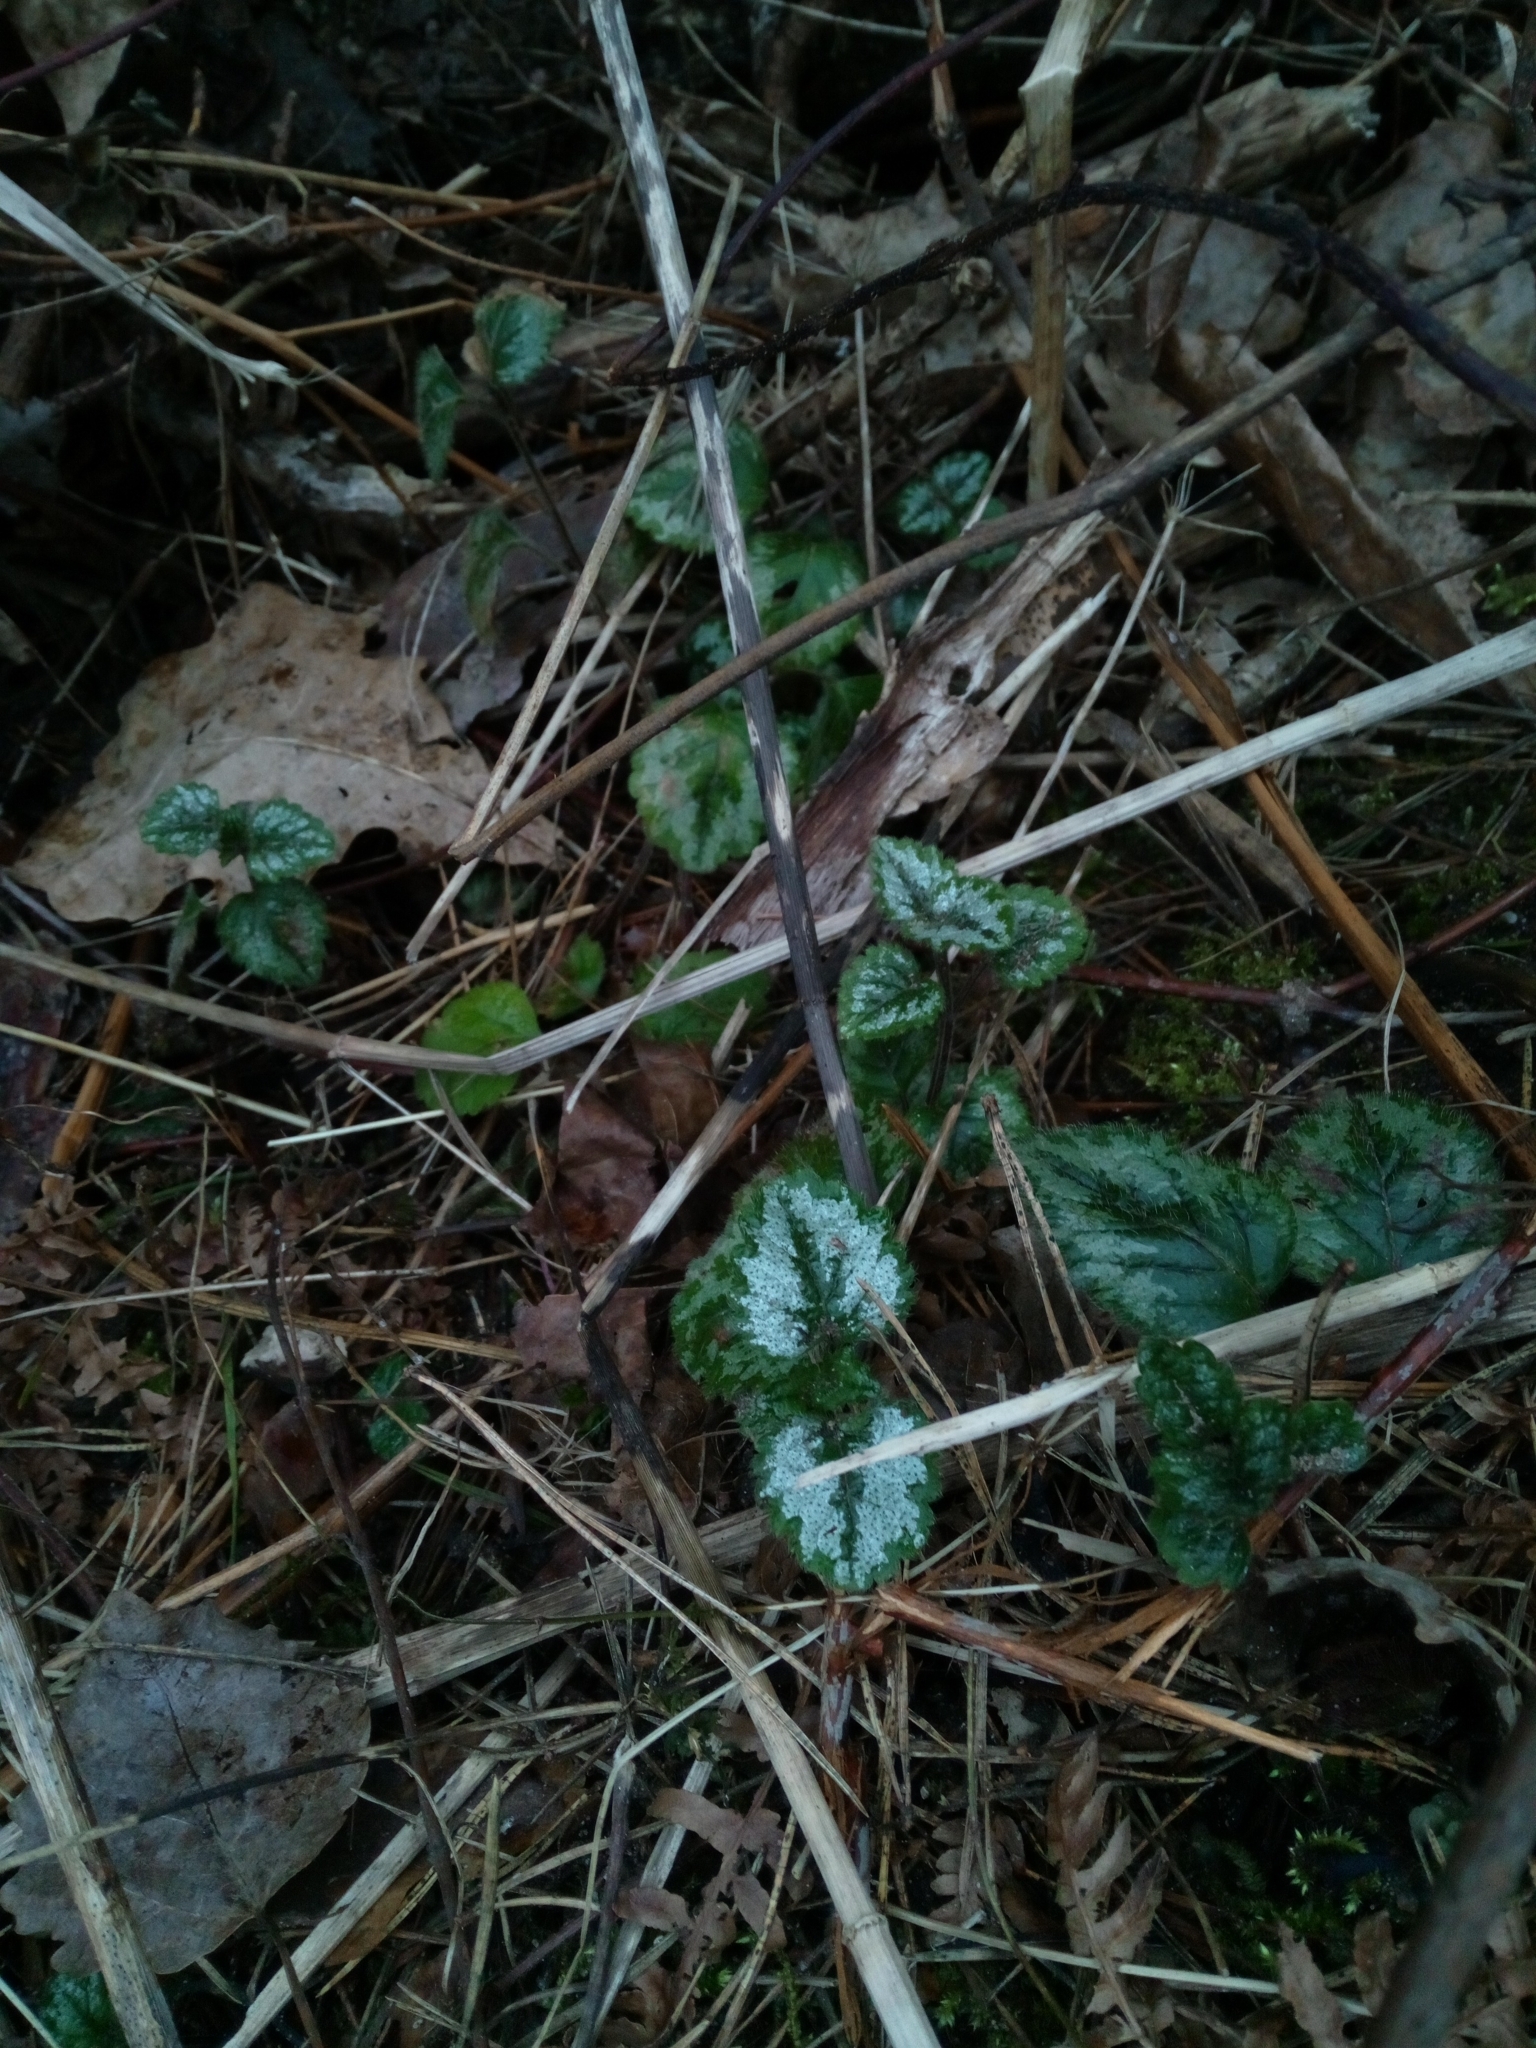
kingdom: Plantae
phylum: Tracheophyta
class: Magnoliopsida
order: Lamiales
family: Lamiaceae
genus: Lamium
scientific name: Lamium galeobdolon
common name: Yellow archangel
